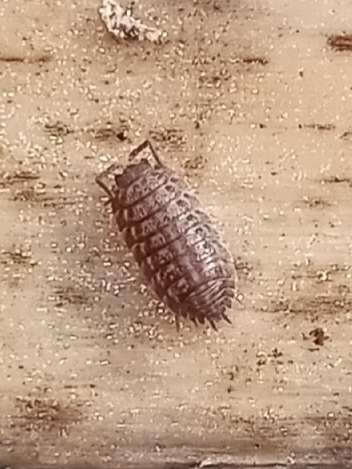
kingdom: Animalia
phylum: Arthropoda
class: Malacostraca
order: Isopoda
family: Trachelipodidae
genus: Trachelipus
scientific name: Trachelipus rathkii
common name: Isopod
